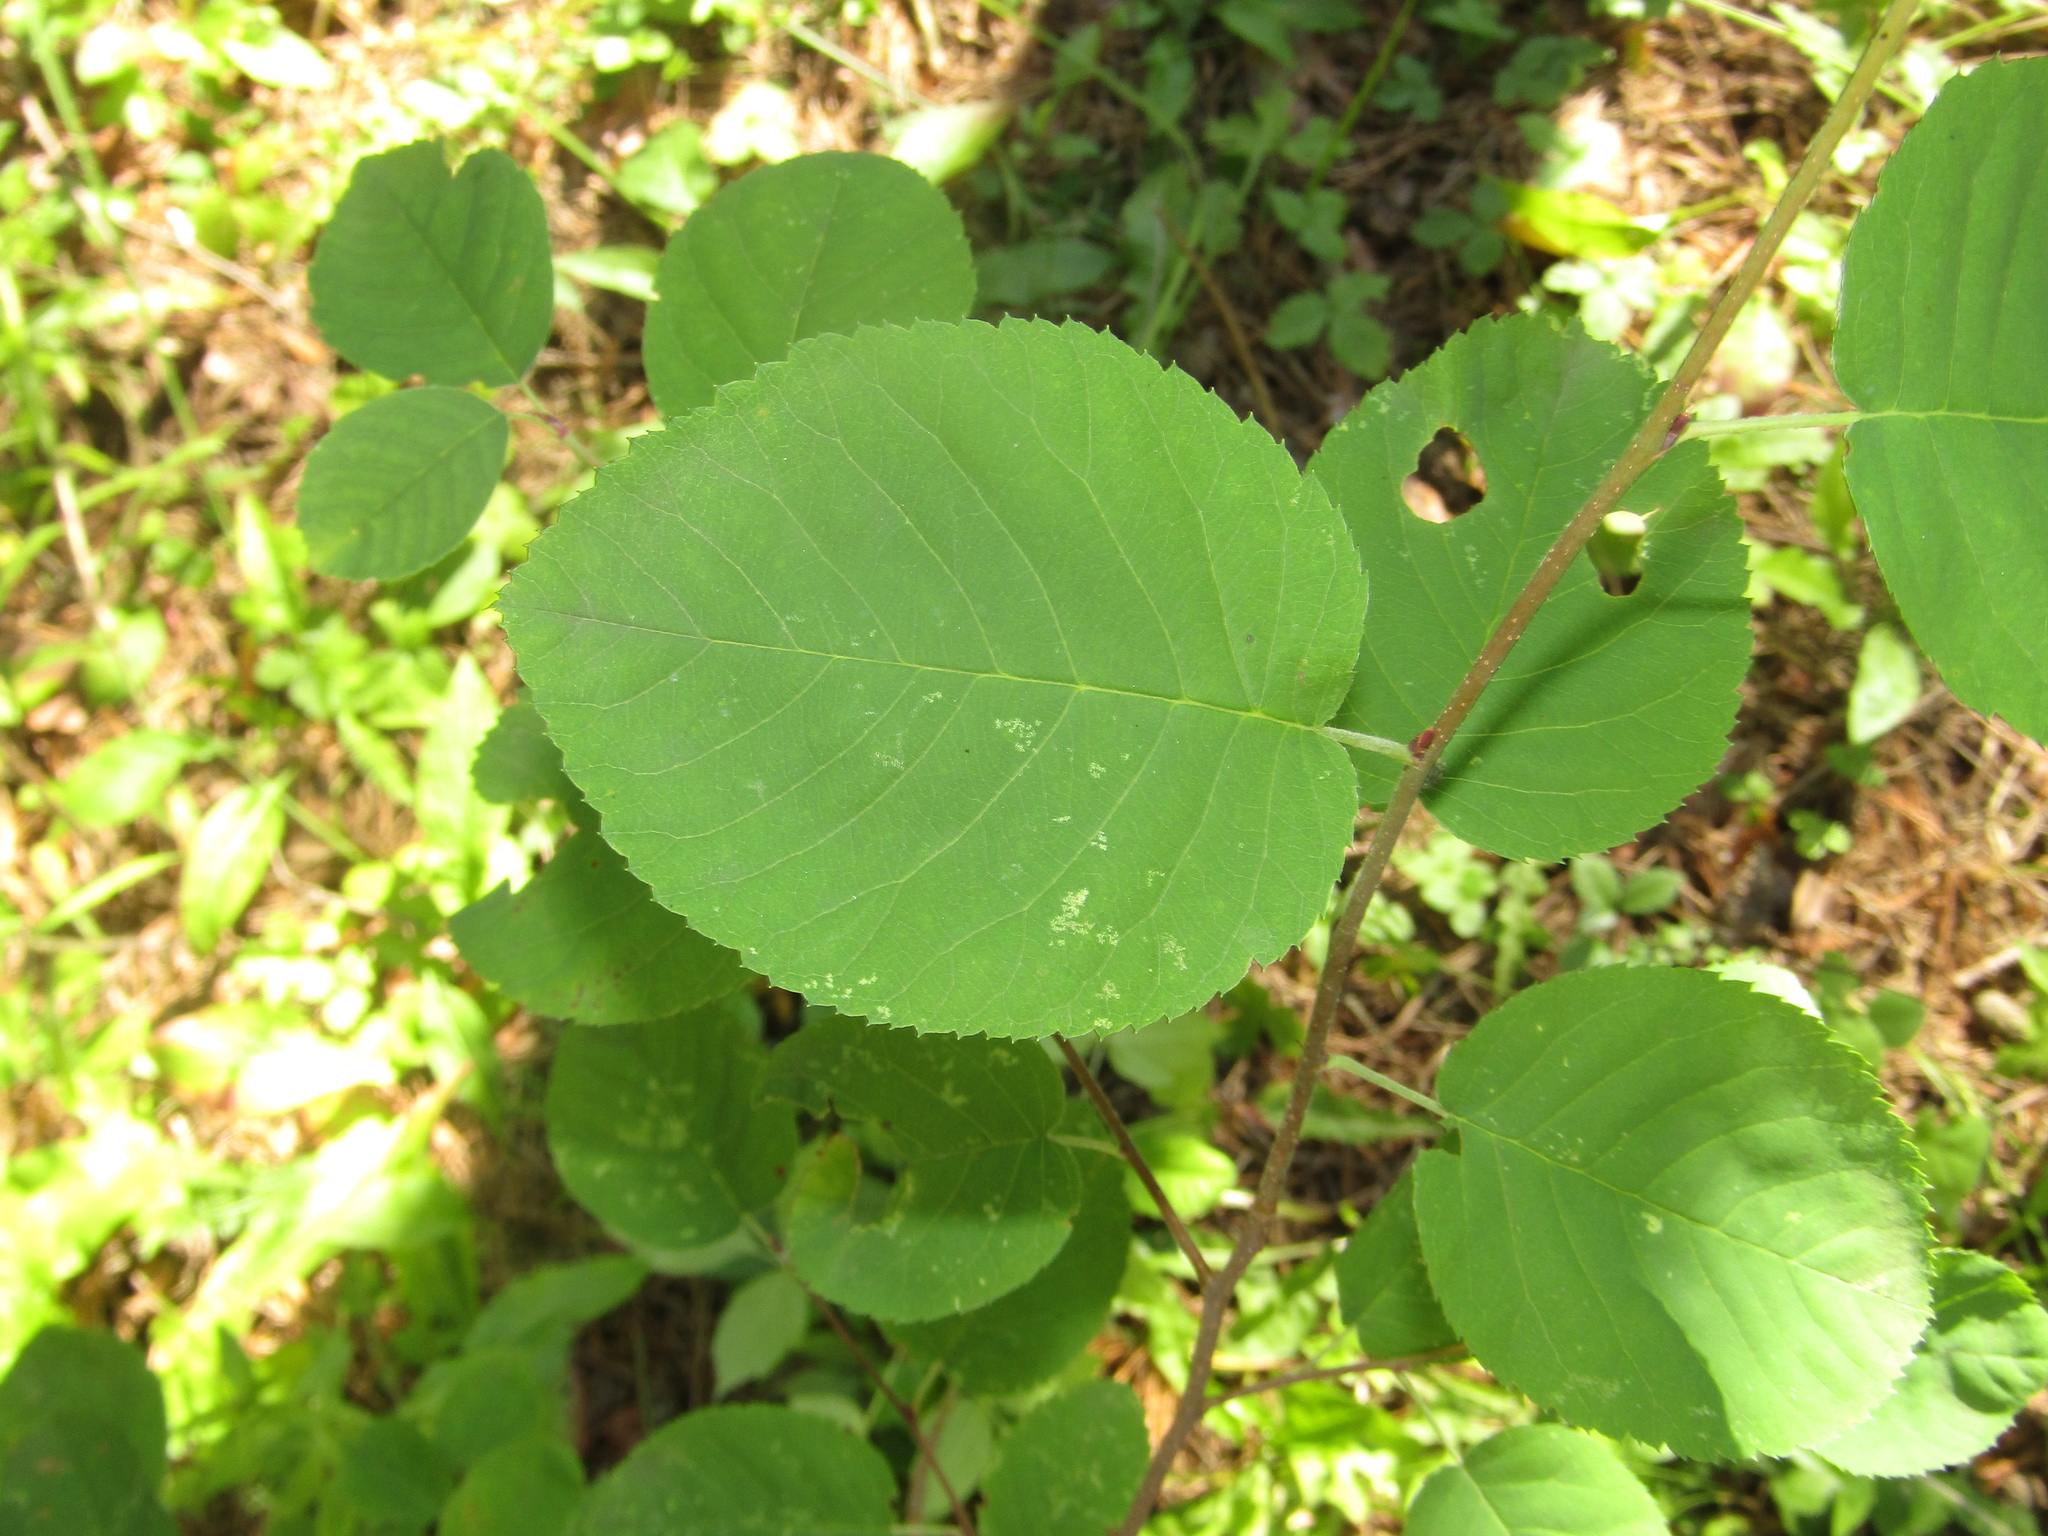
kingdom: Plantae
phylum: Tracheophyta
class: Magnoliopsida
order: Rosales
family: Rosaceae
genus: Amelanchier
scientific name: Amelanchier
